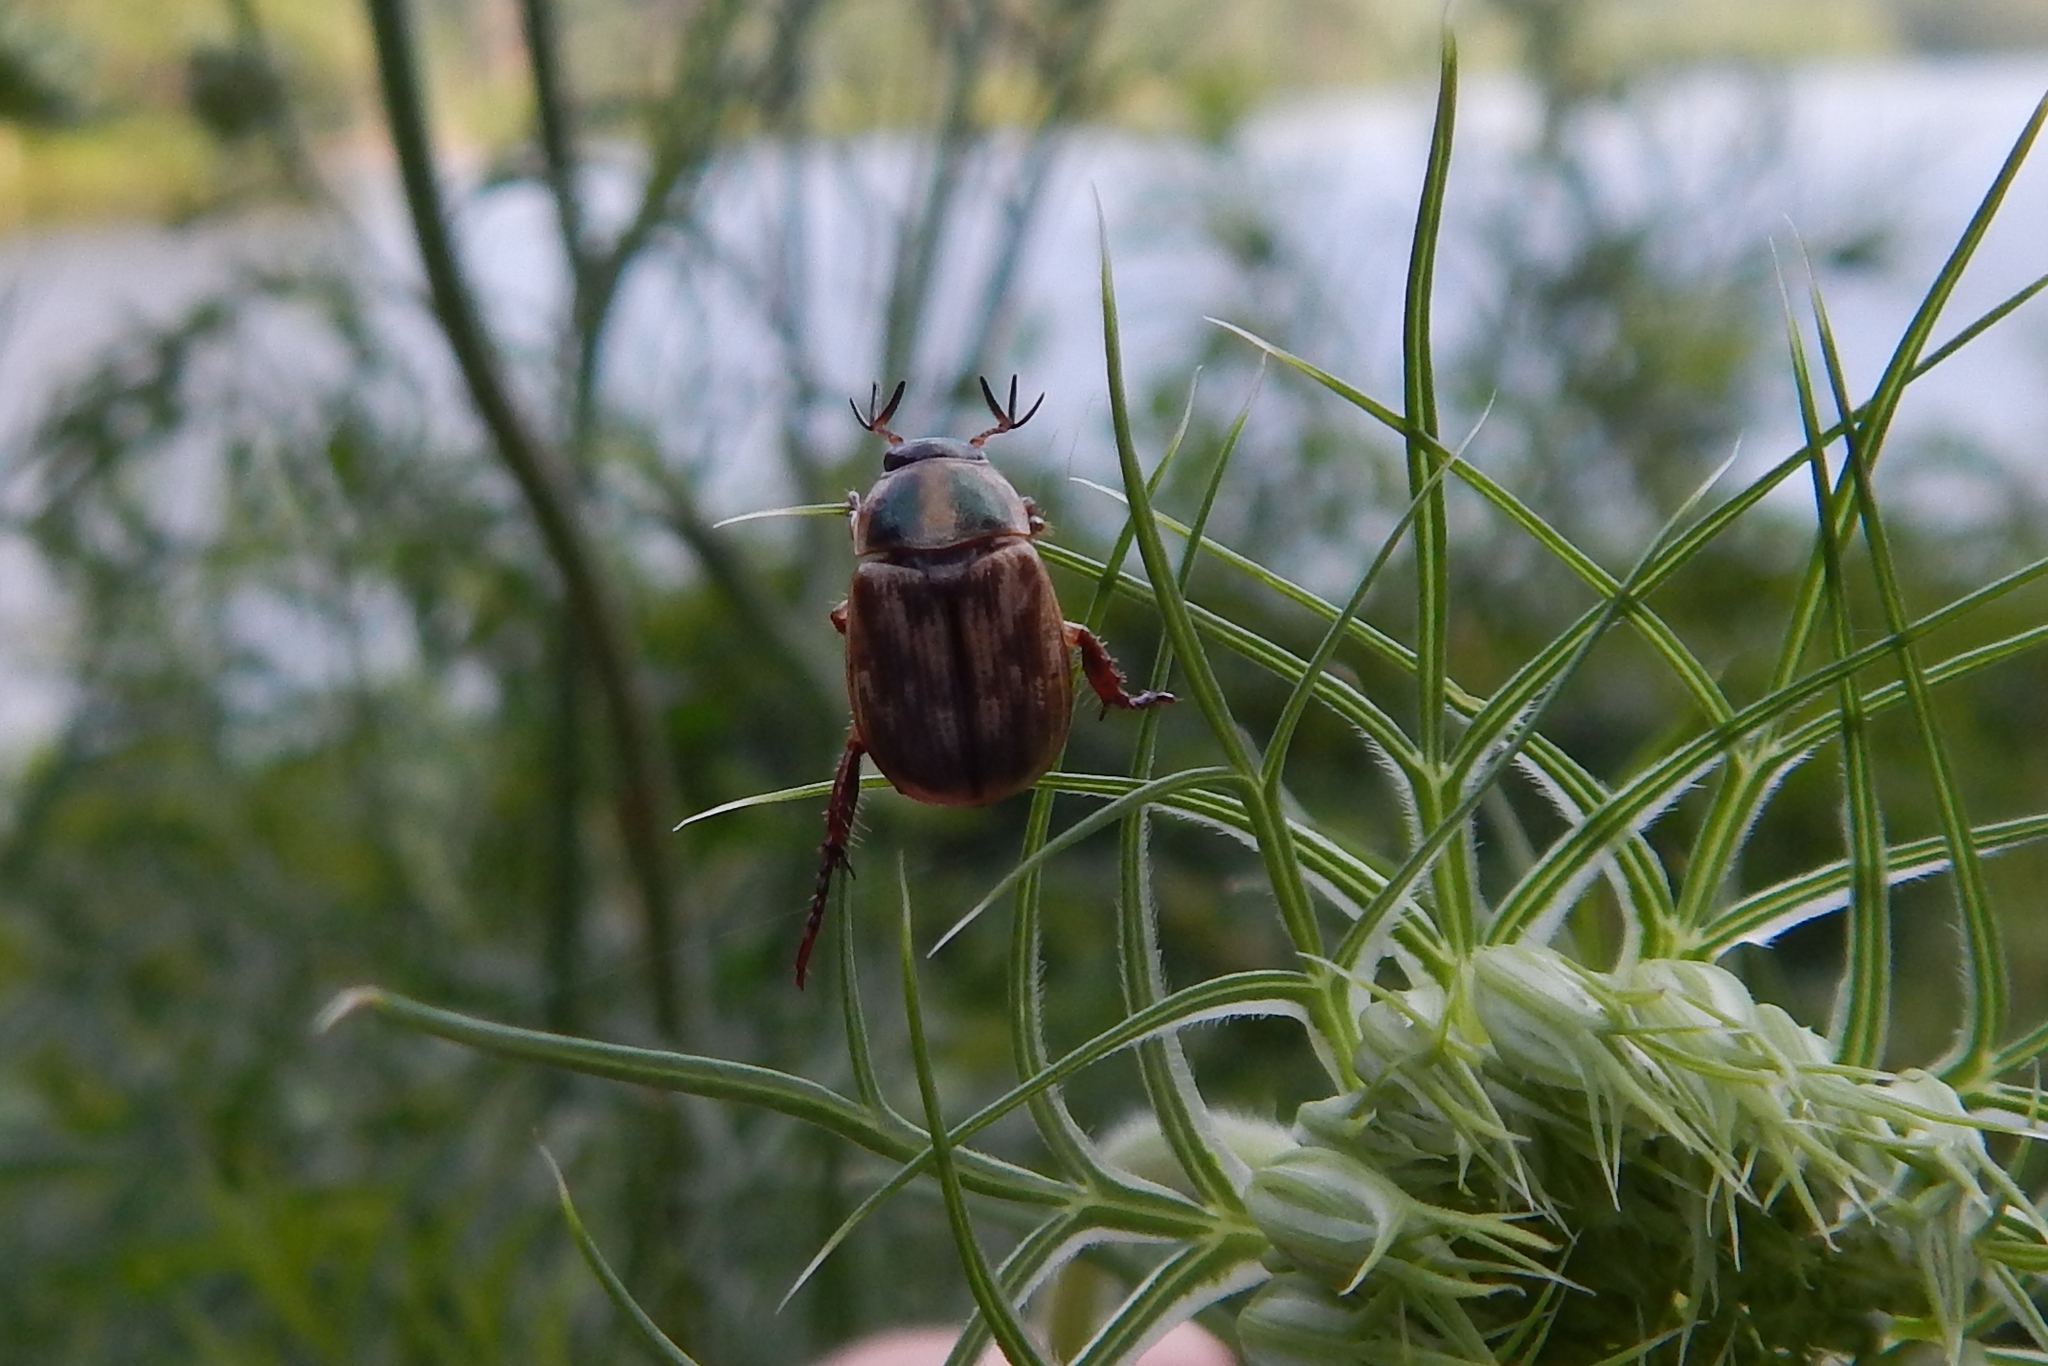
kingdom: Animalia
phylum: Arthropoda
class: Insecta
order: Coleoptera
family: Scarabaeidae
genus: Exomala
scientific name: Exomala orientalis
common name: Oriental beetle
